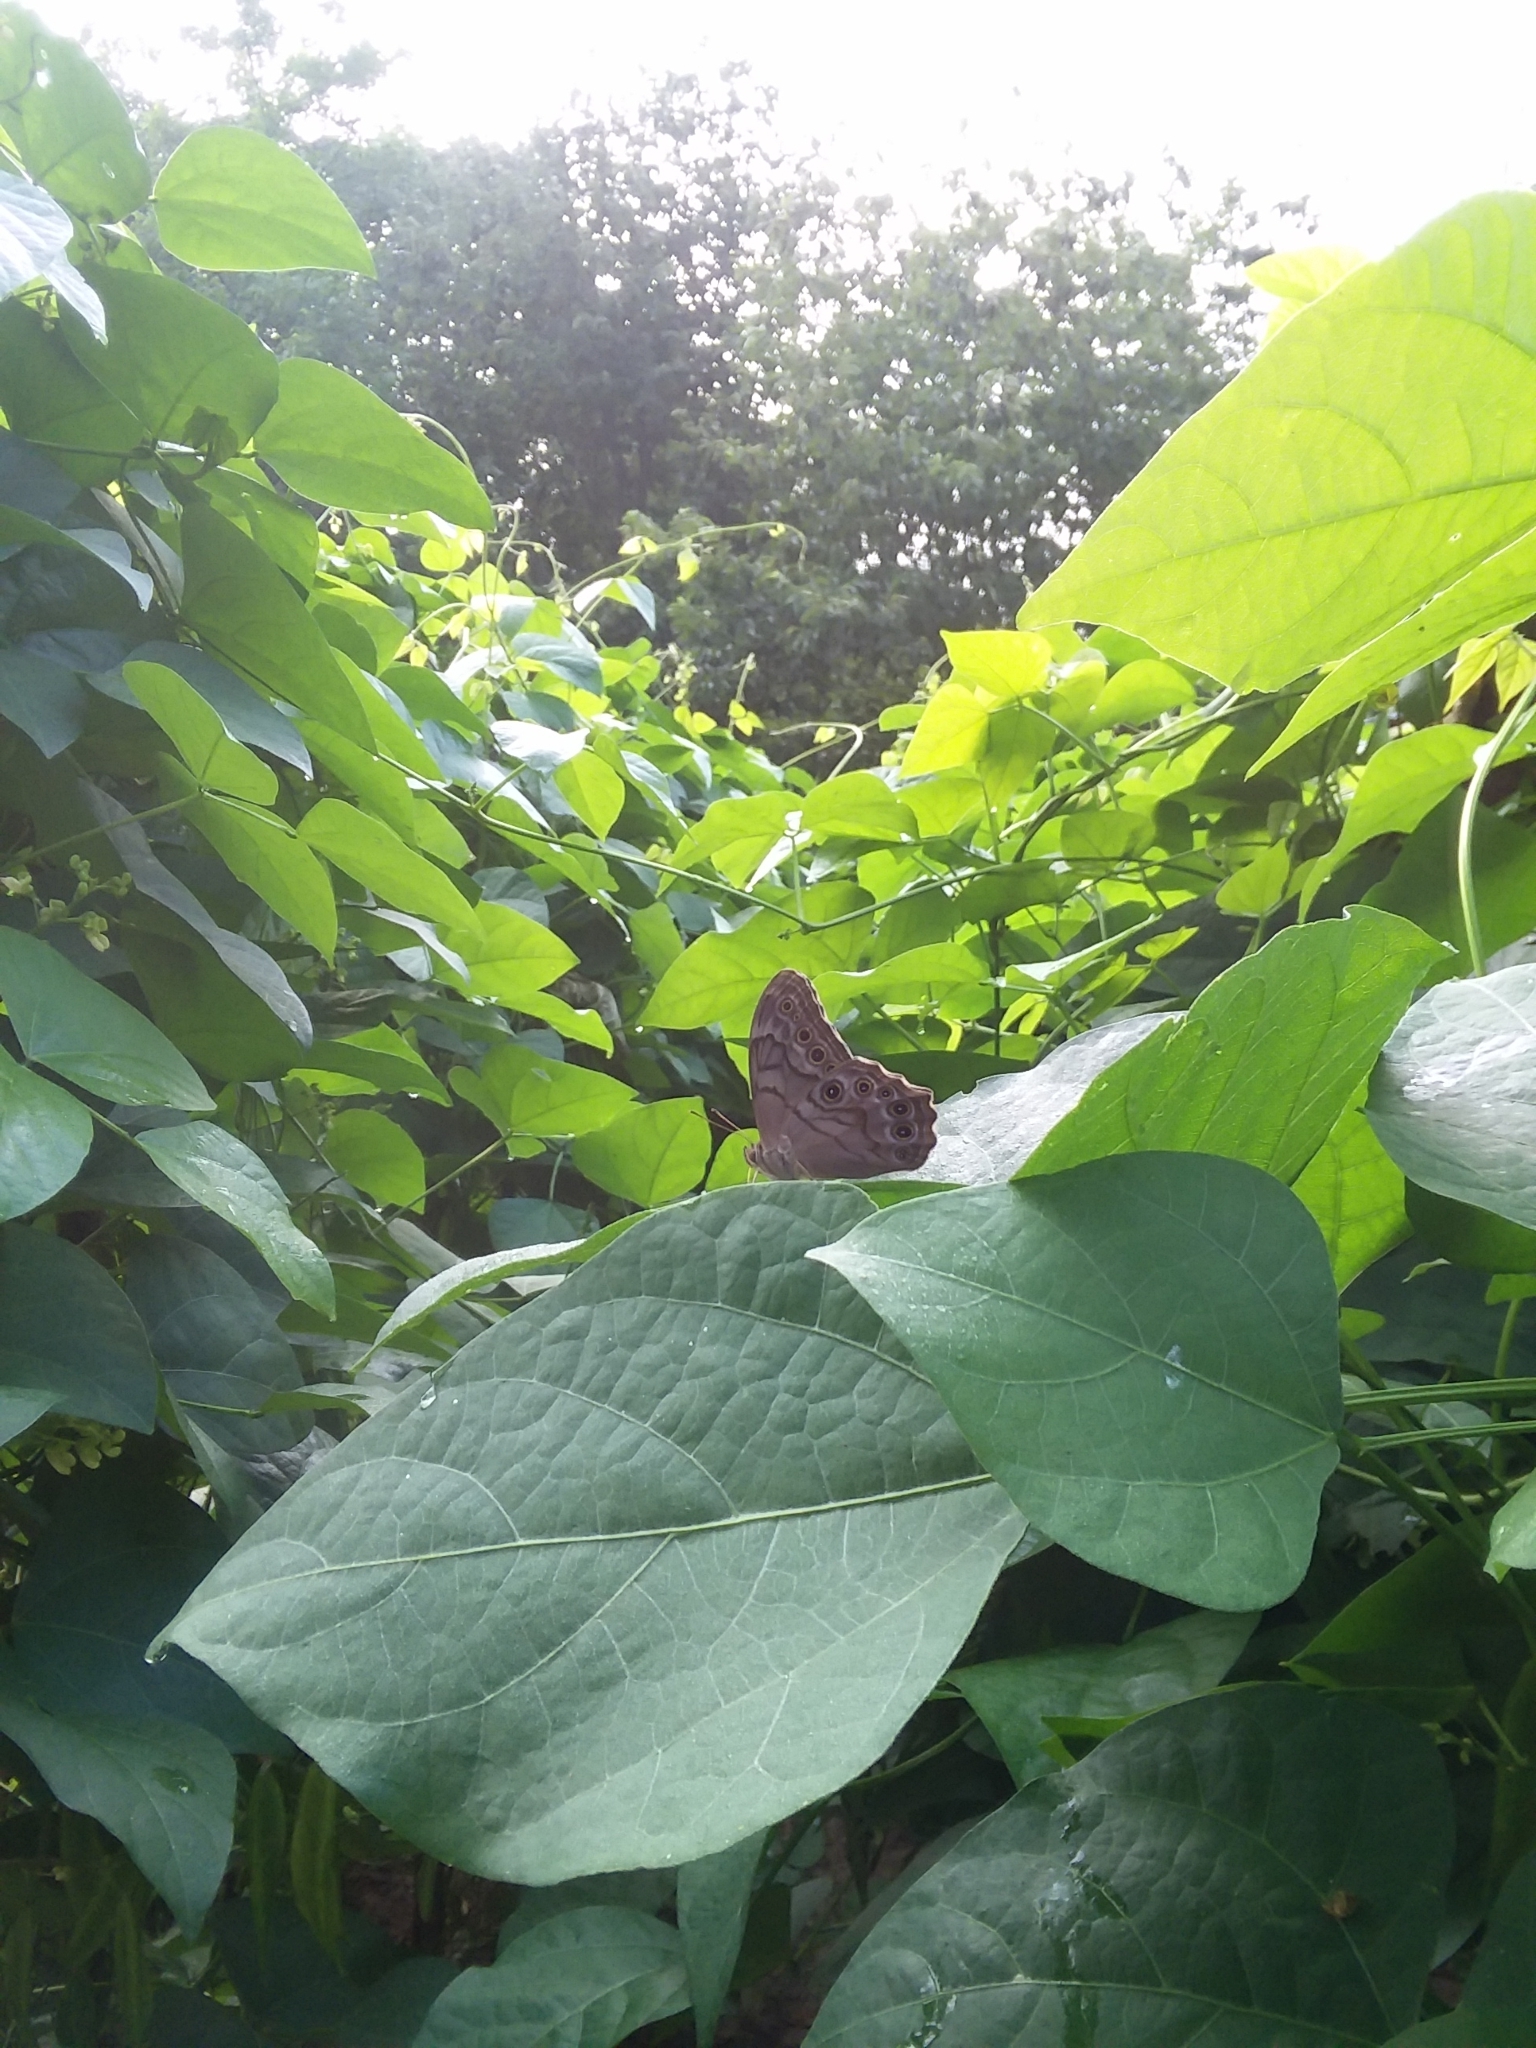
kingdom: Animalia
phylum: Arthropoda
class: Insecta
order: Lepidoptera
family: Nymphalidae
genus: Lethe
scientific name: Lethe creola
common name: Creole pearly-eye
